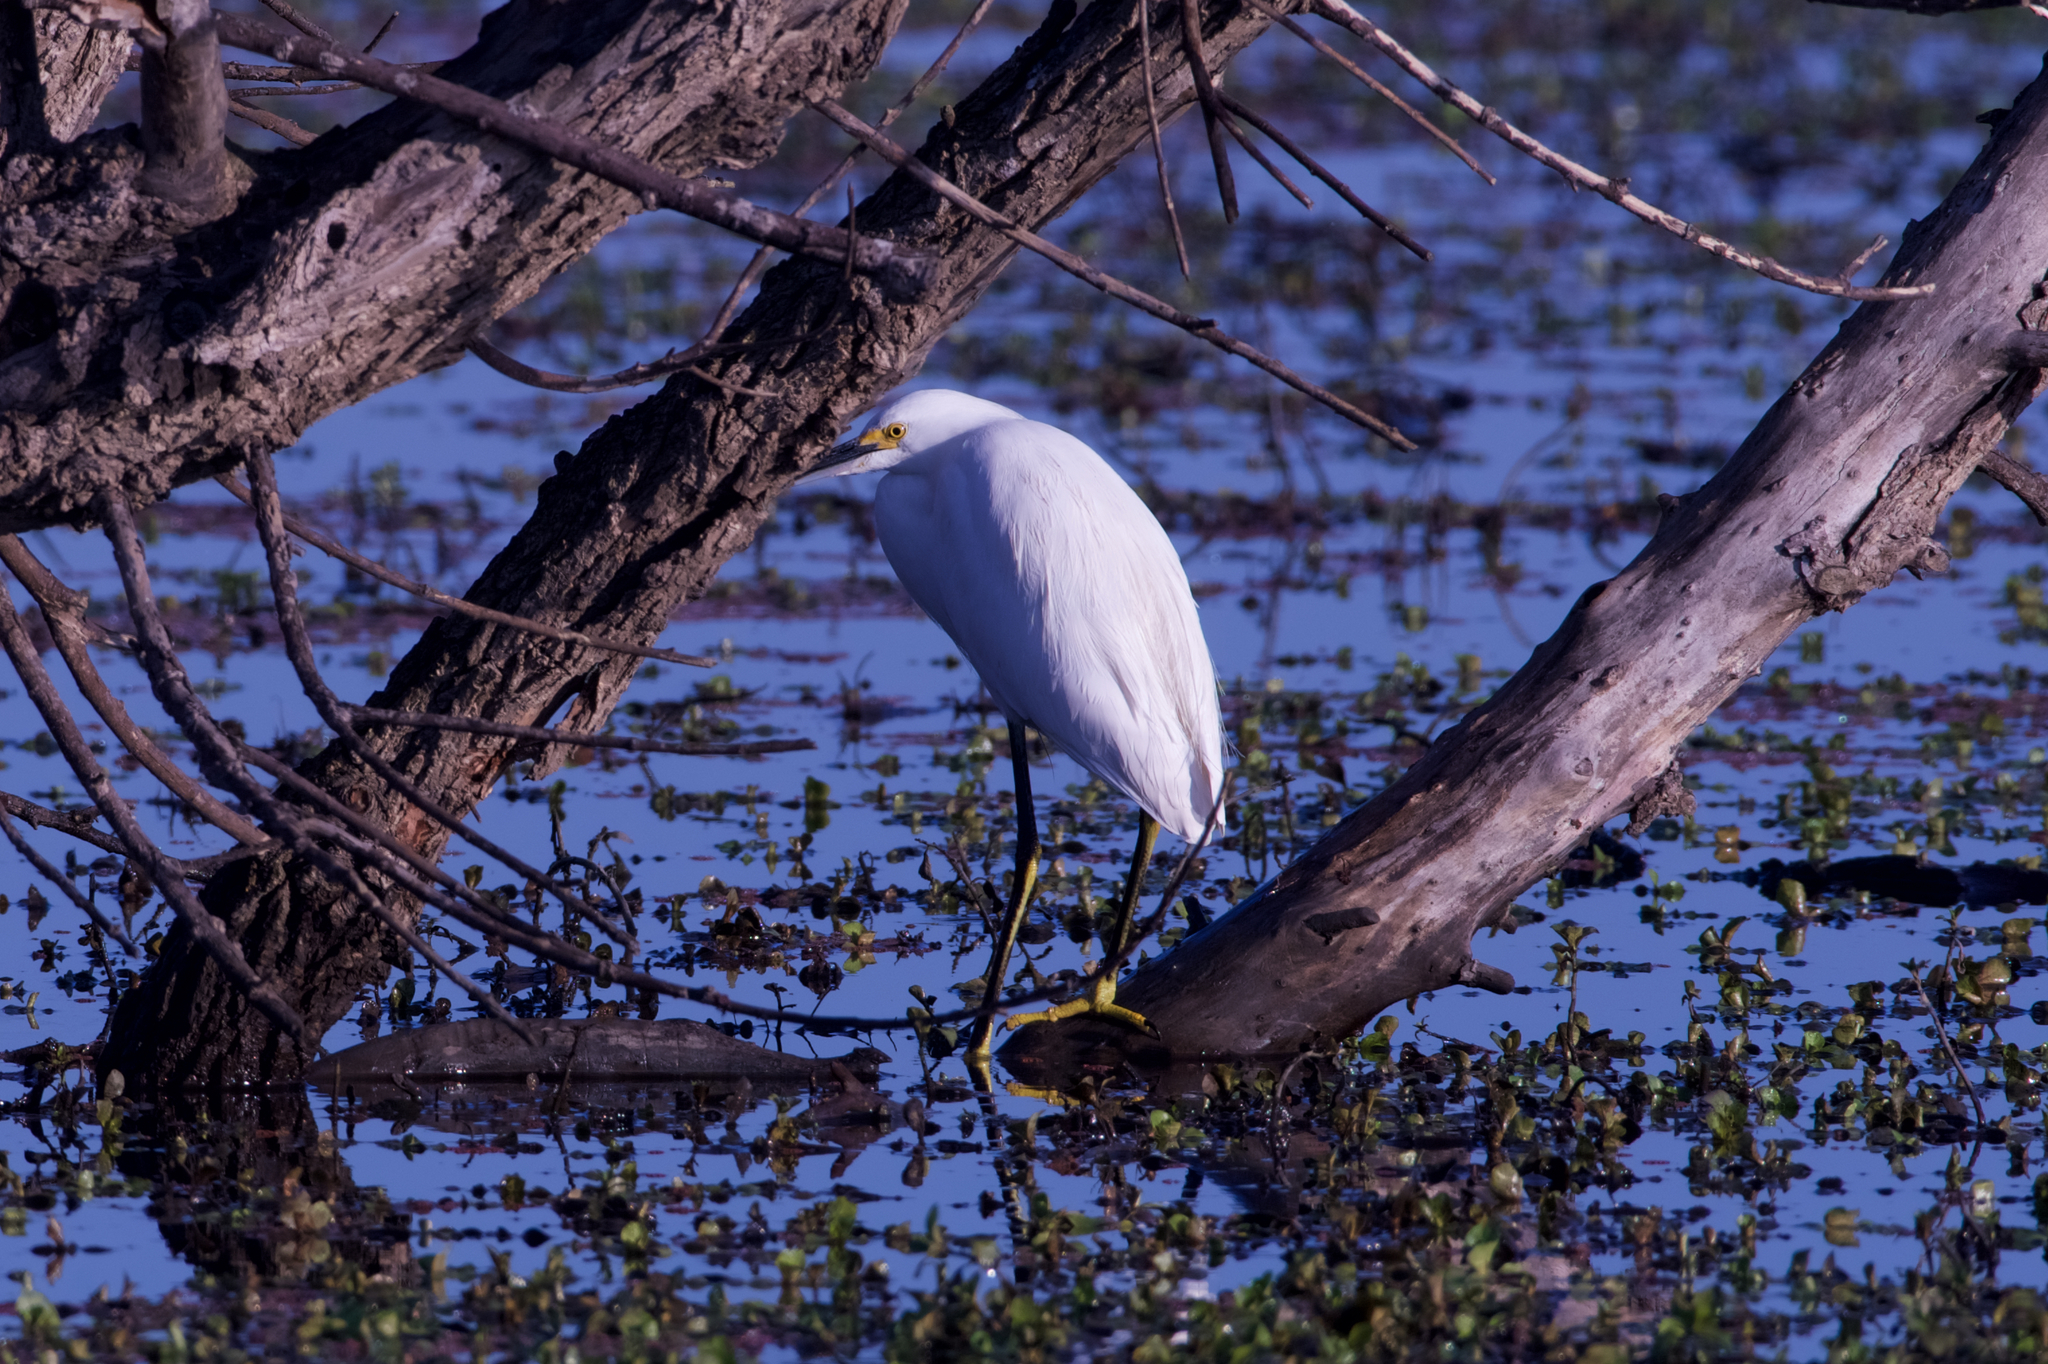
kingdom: Animalia
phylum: Chordata
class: Aves
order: Pelecaniformes
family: Ardeidae
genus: Egretta
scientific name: Egretta thula
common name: Snowy egret
